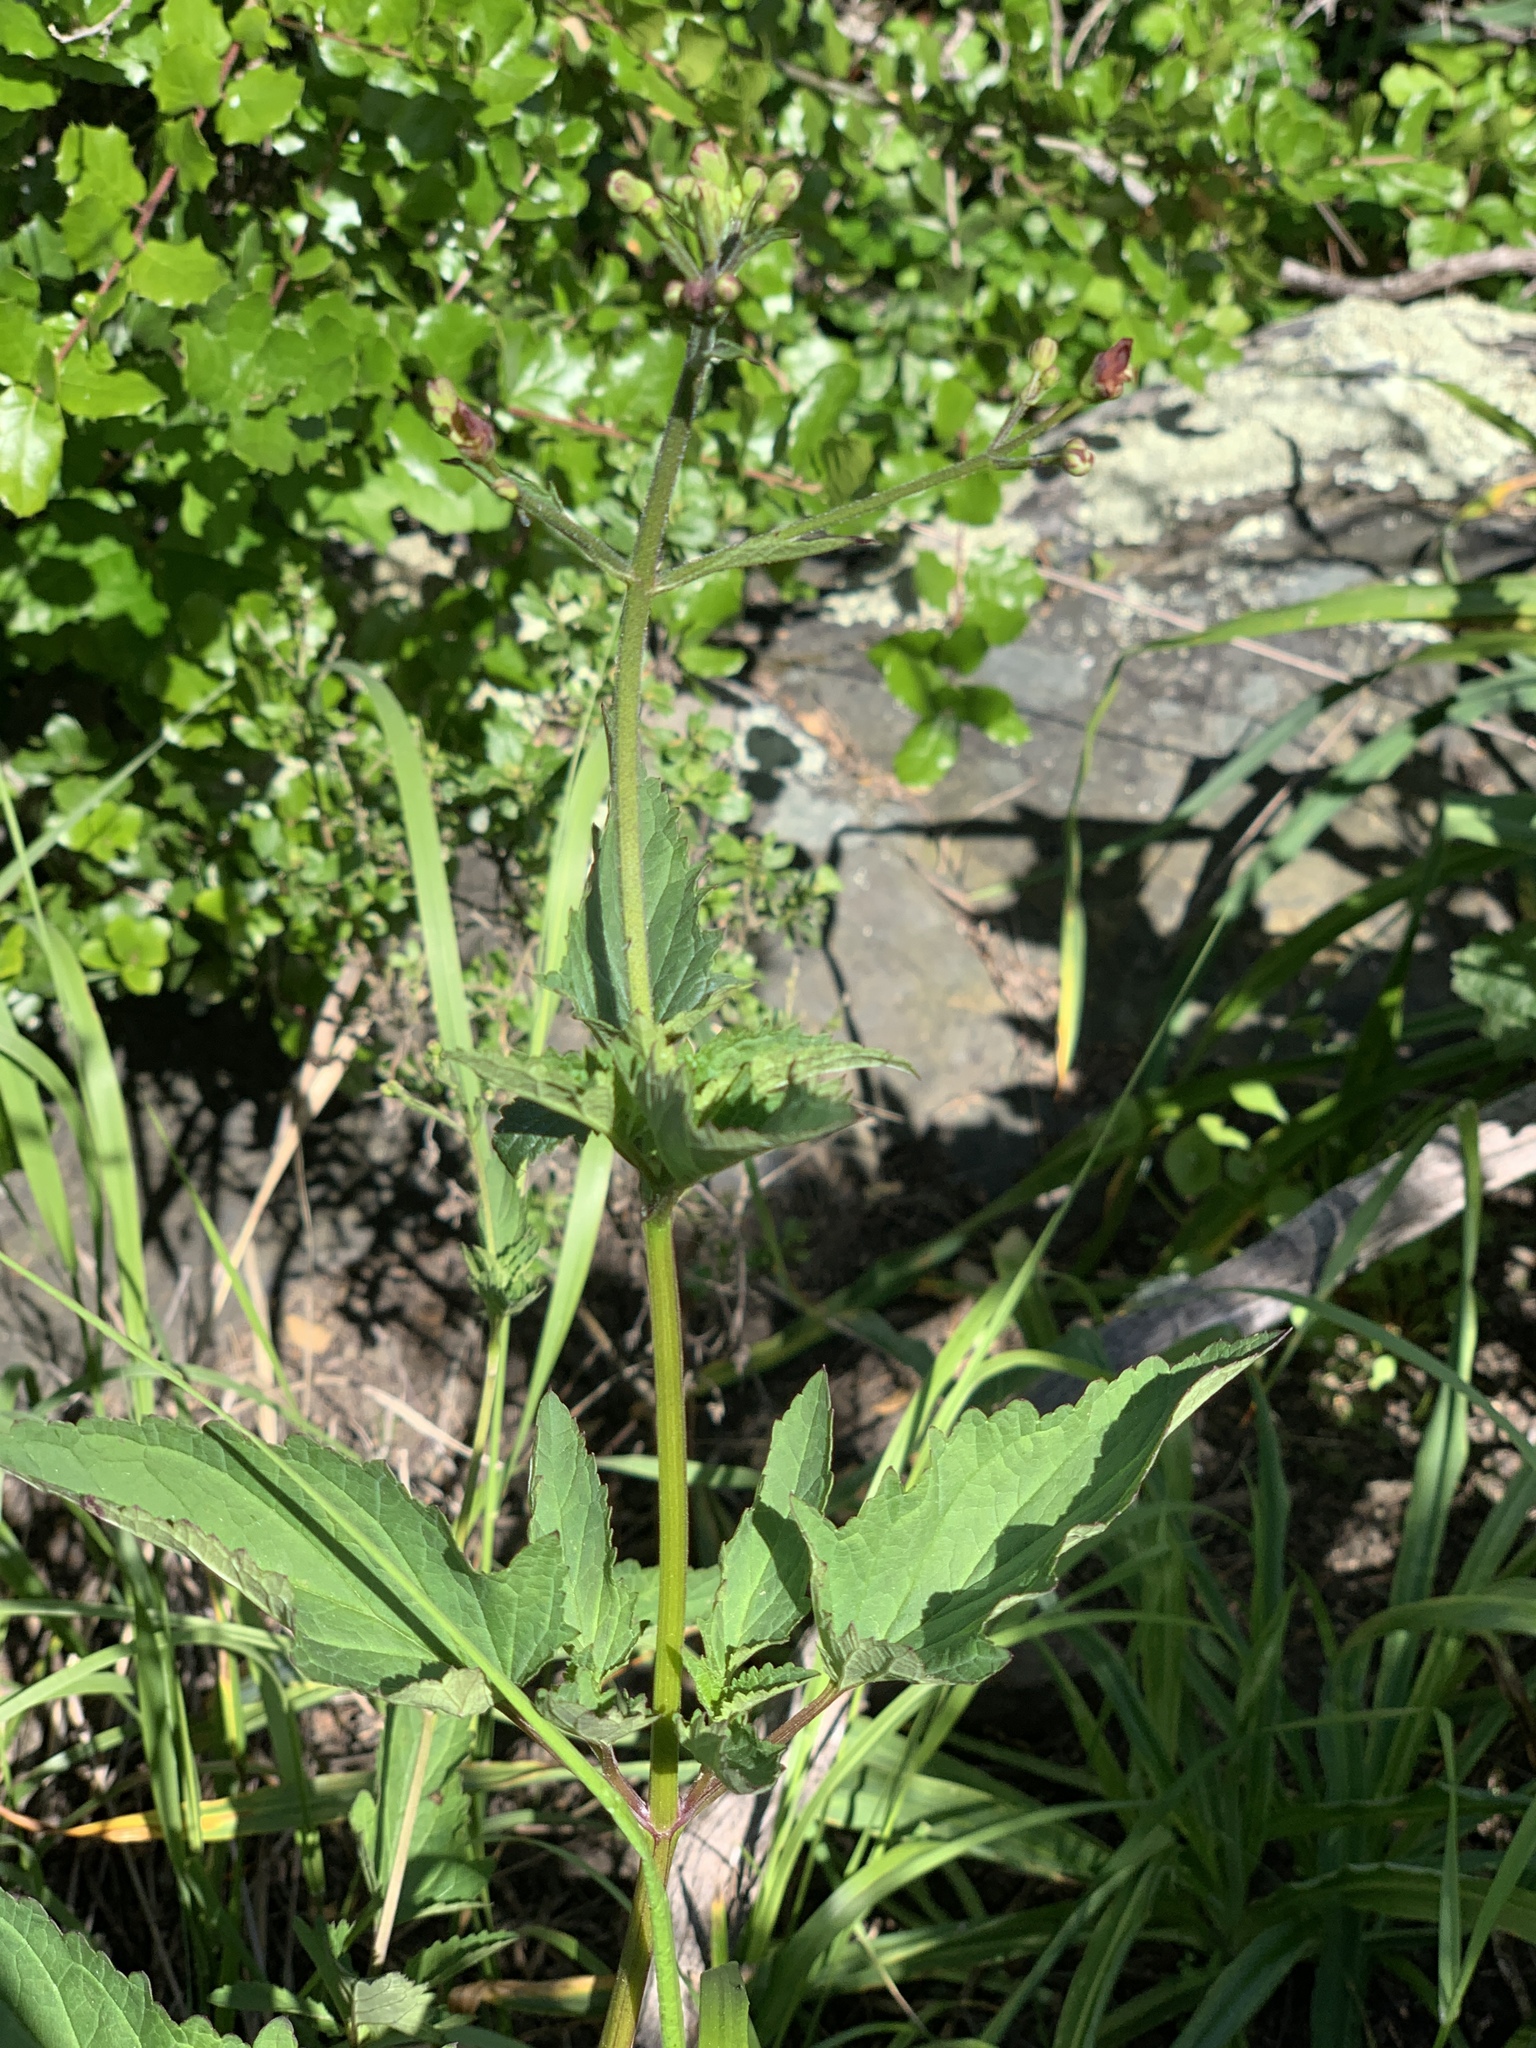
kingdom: Plantae
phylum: Tracheophyta
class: Magnoliopsida
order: Lamiales
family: Scrophulariaceae
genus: Scrophularia
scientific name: Scrophularia californica
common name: California figwort
